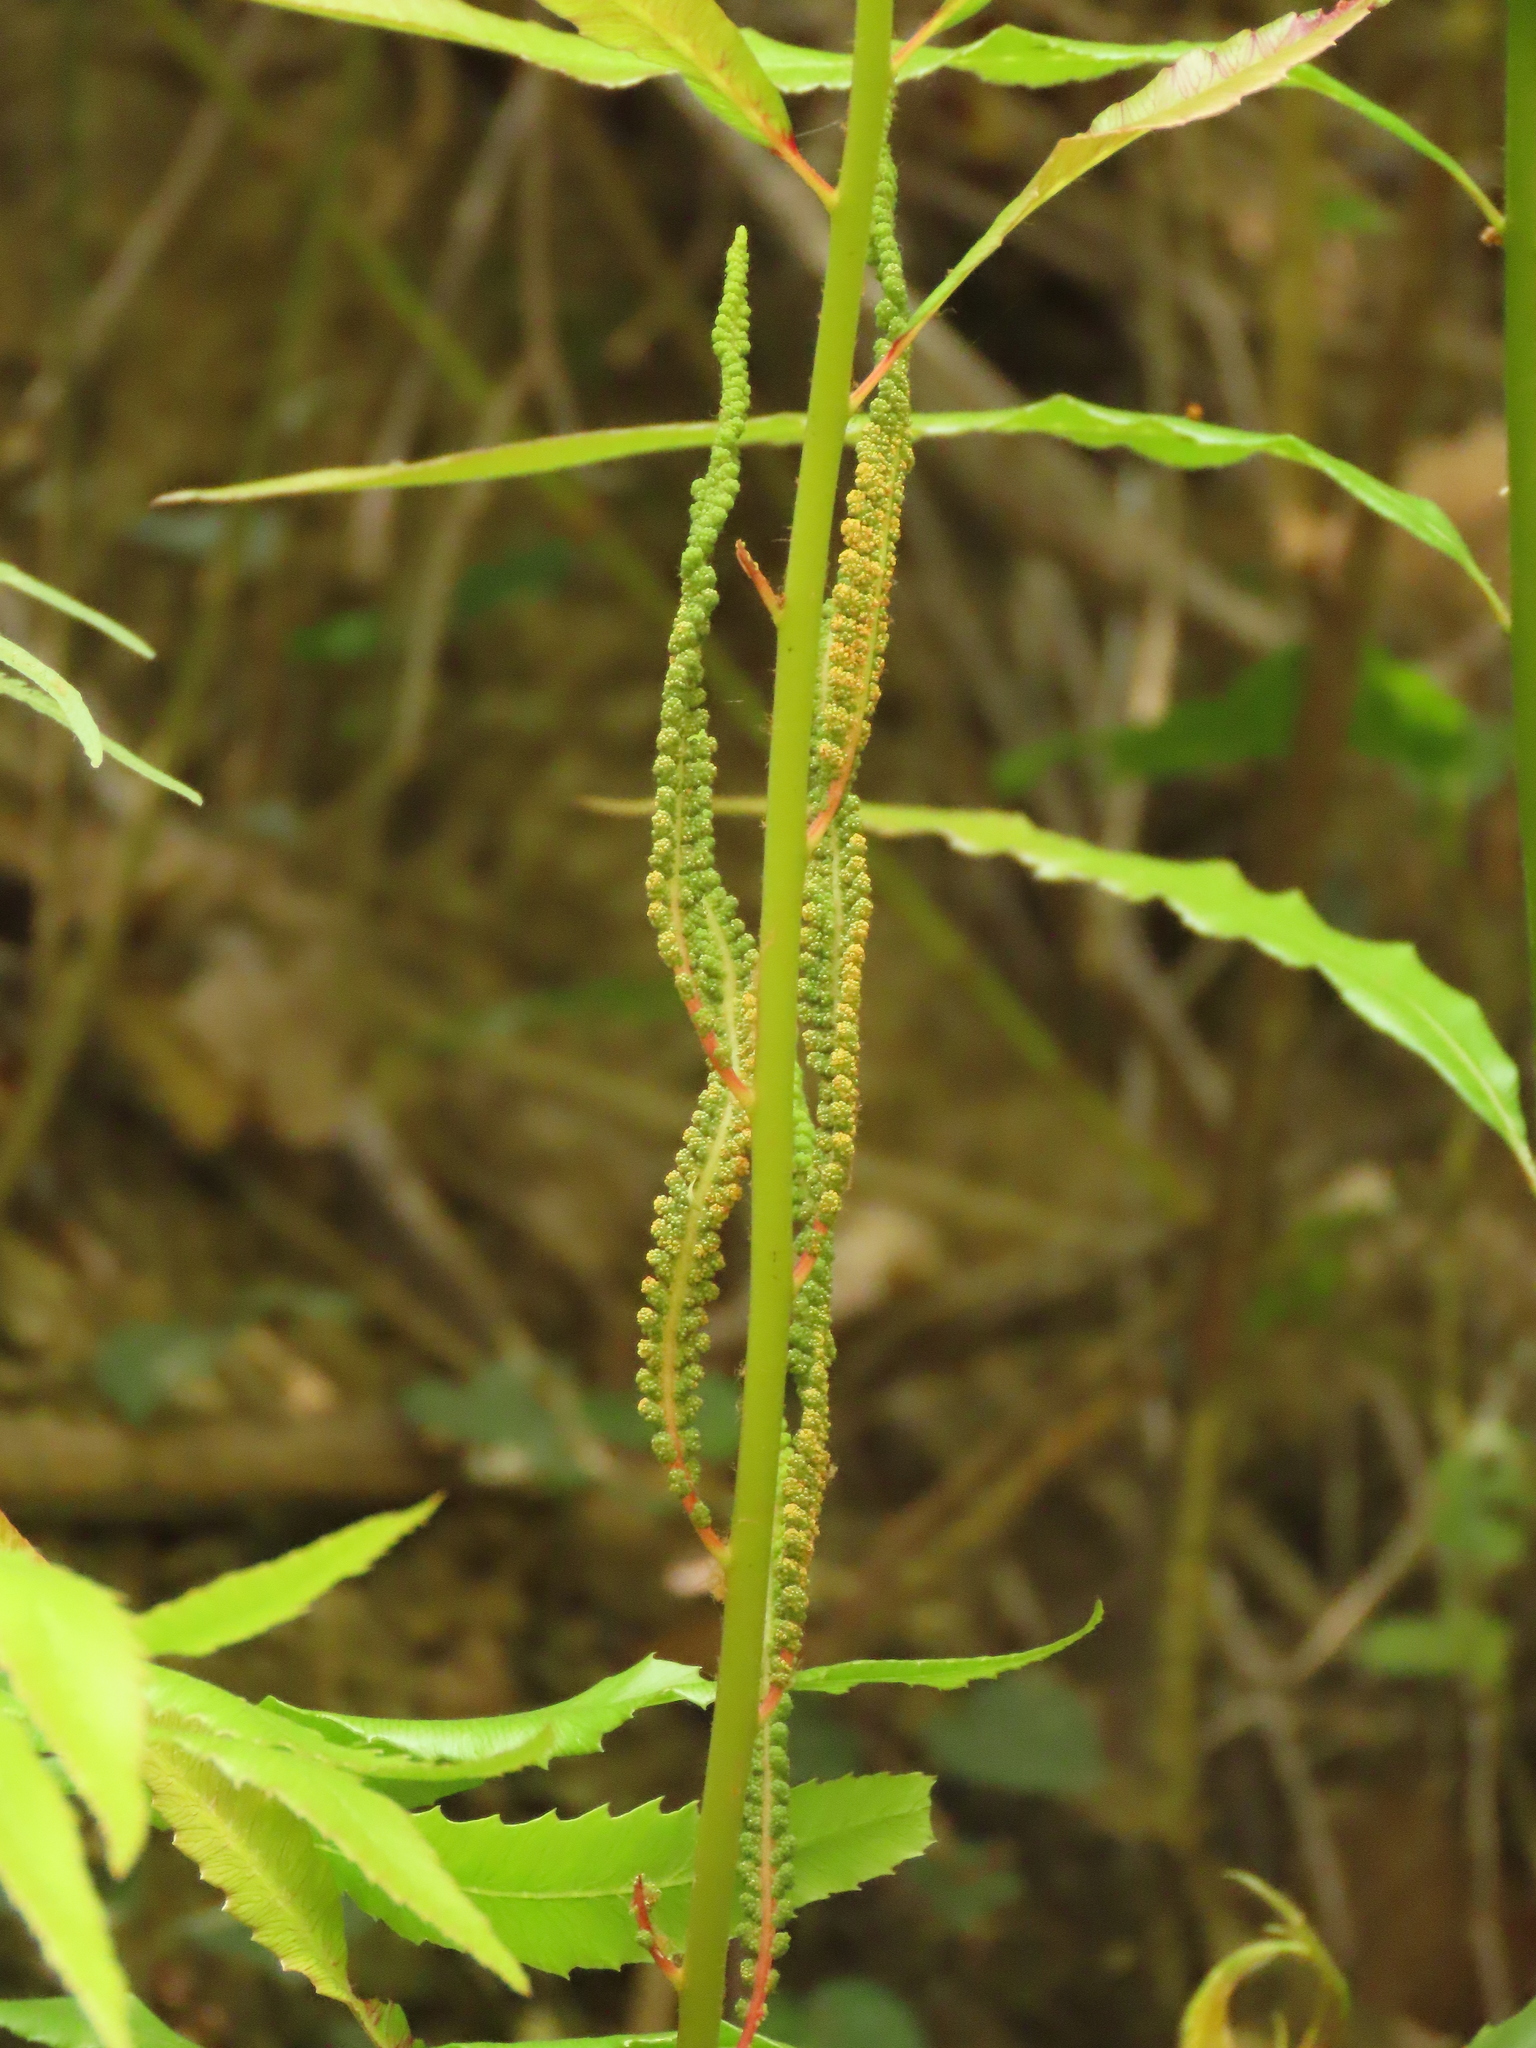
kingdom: Plantae
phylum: Tracheophyta
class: Polypodiopsida
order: Osmundales
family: Osmundaceae
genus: Plenasium
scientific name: Plenasium banksiifolium
